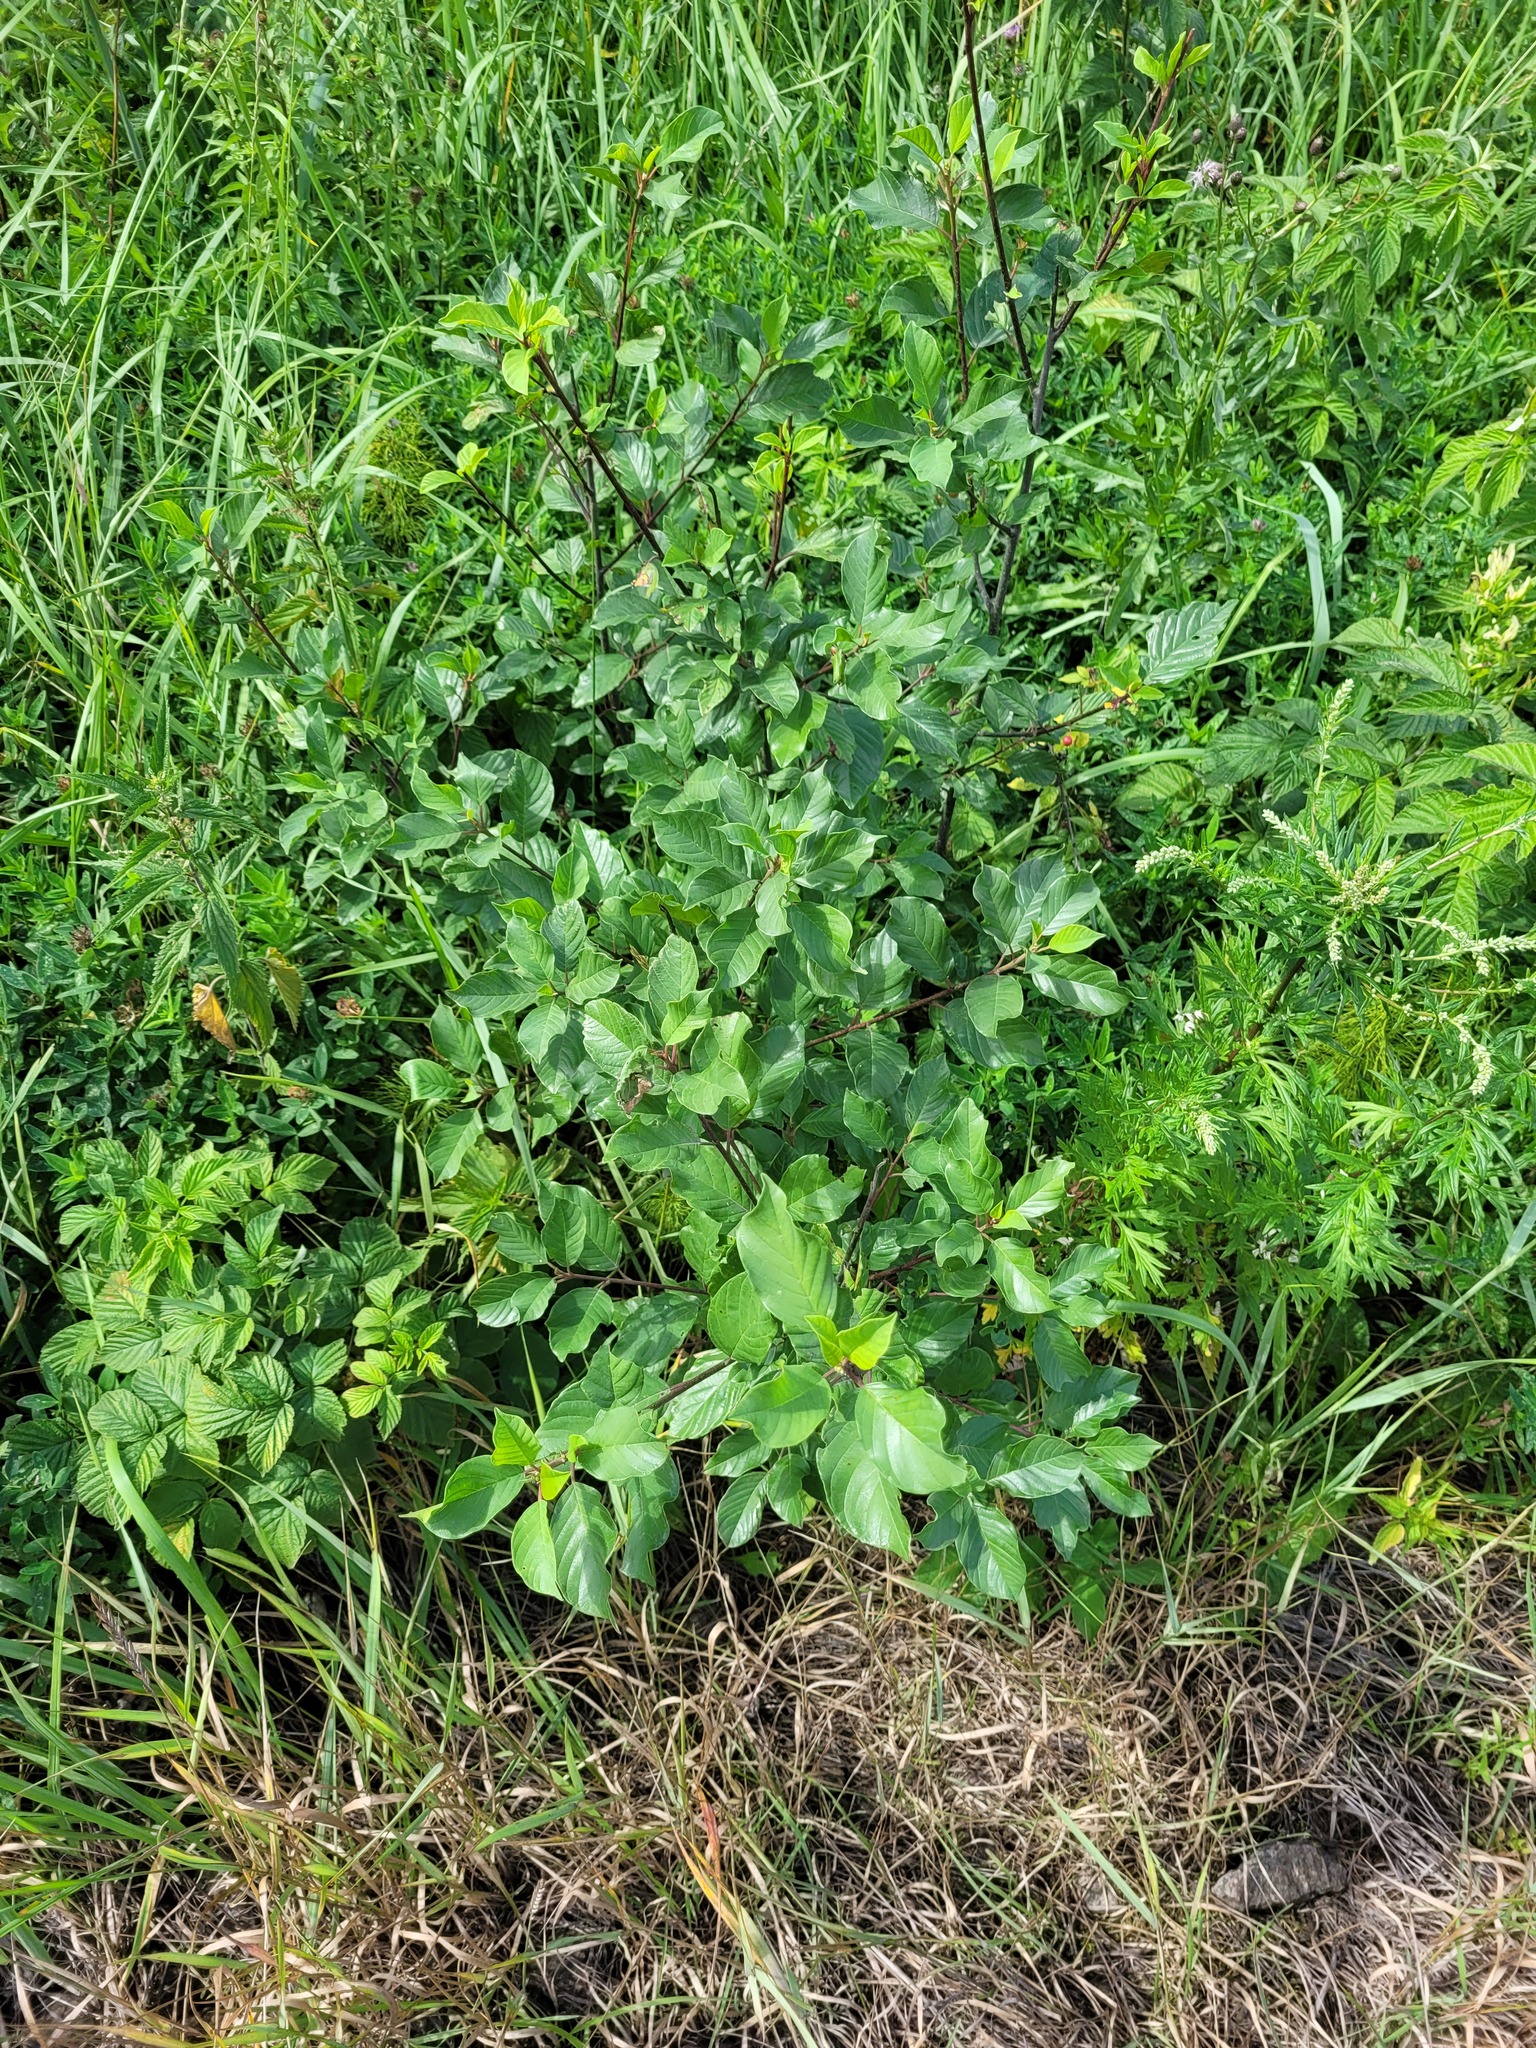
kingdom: Plantae
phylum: Tracheophyta
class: Magnoliopsida
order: Rosales
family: Rhamnaceae
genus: Frangula
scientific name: Frangula alnus
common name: Alder buckthorn
